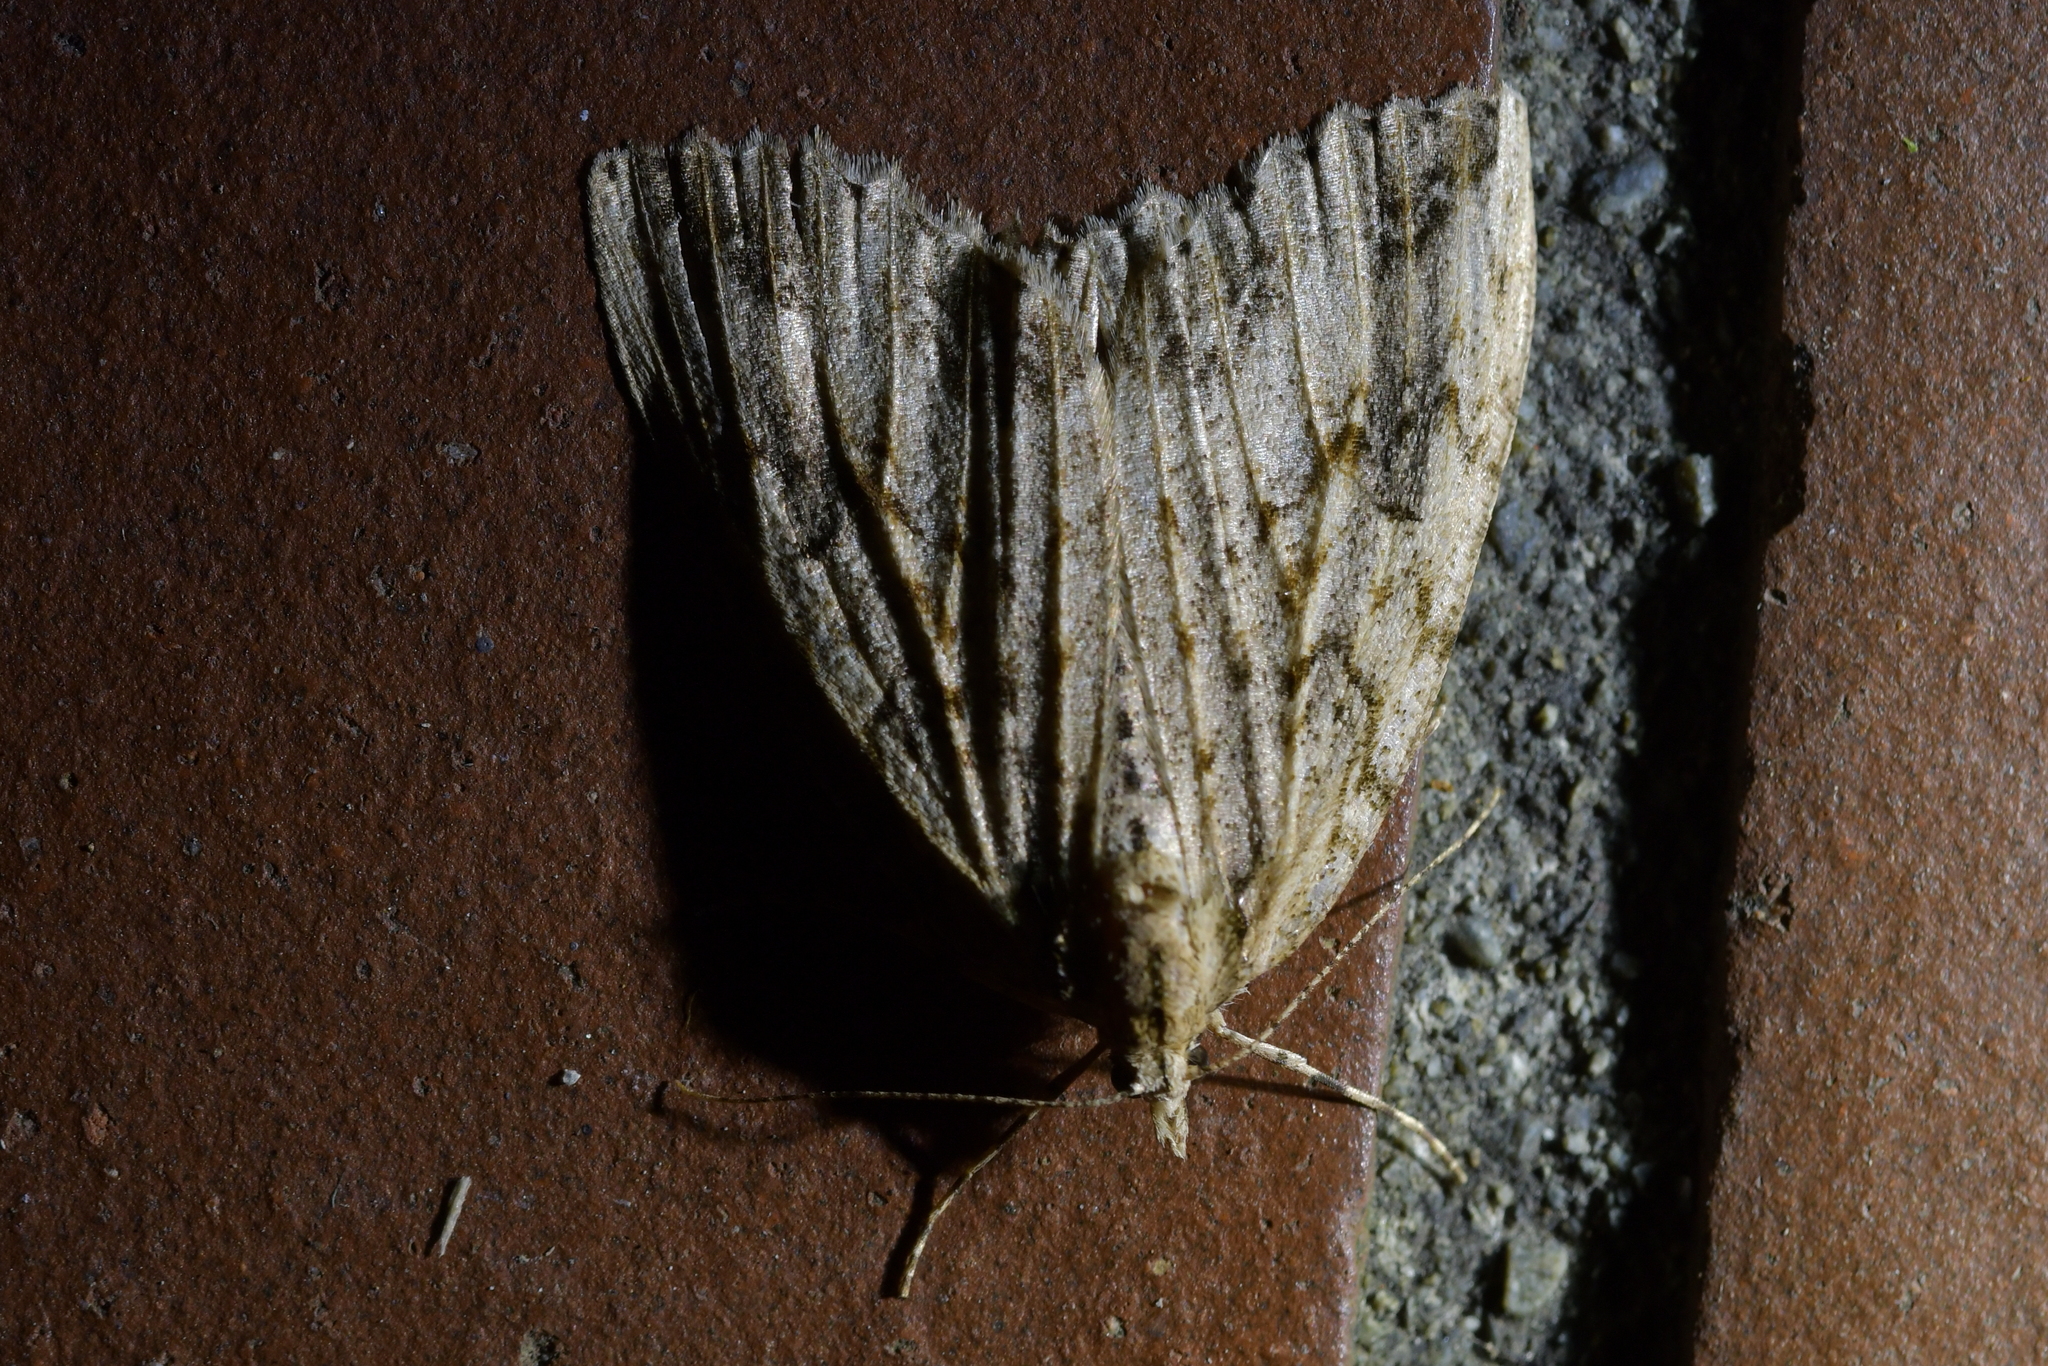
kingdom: Animalia
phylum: Arthropoda
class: Insecta
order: Lepidoptera
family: Geometridae
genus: Pseudocoremia
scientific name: Pseudocoremia rudisata
